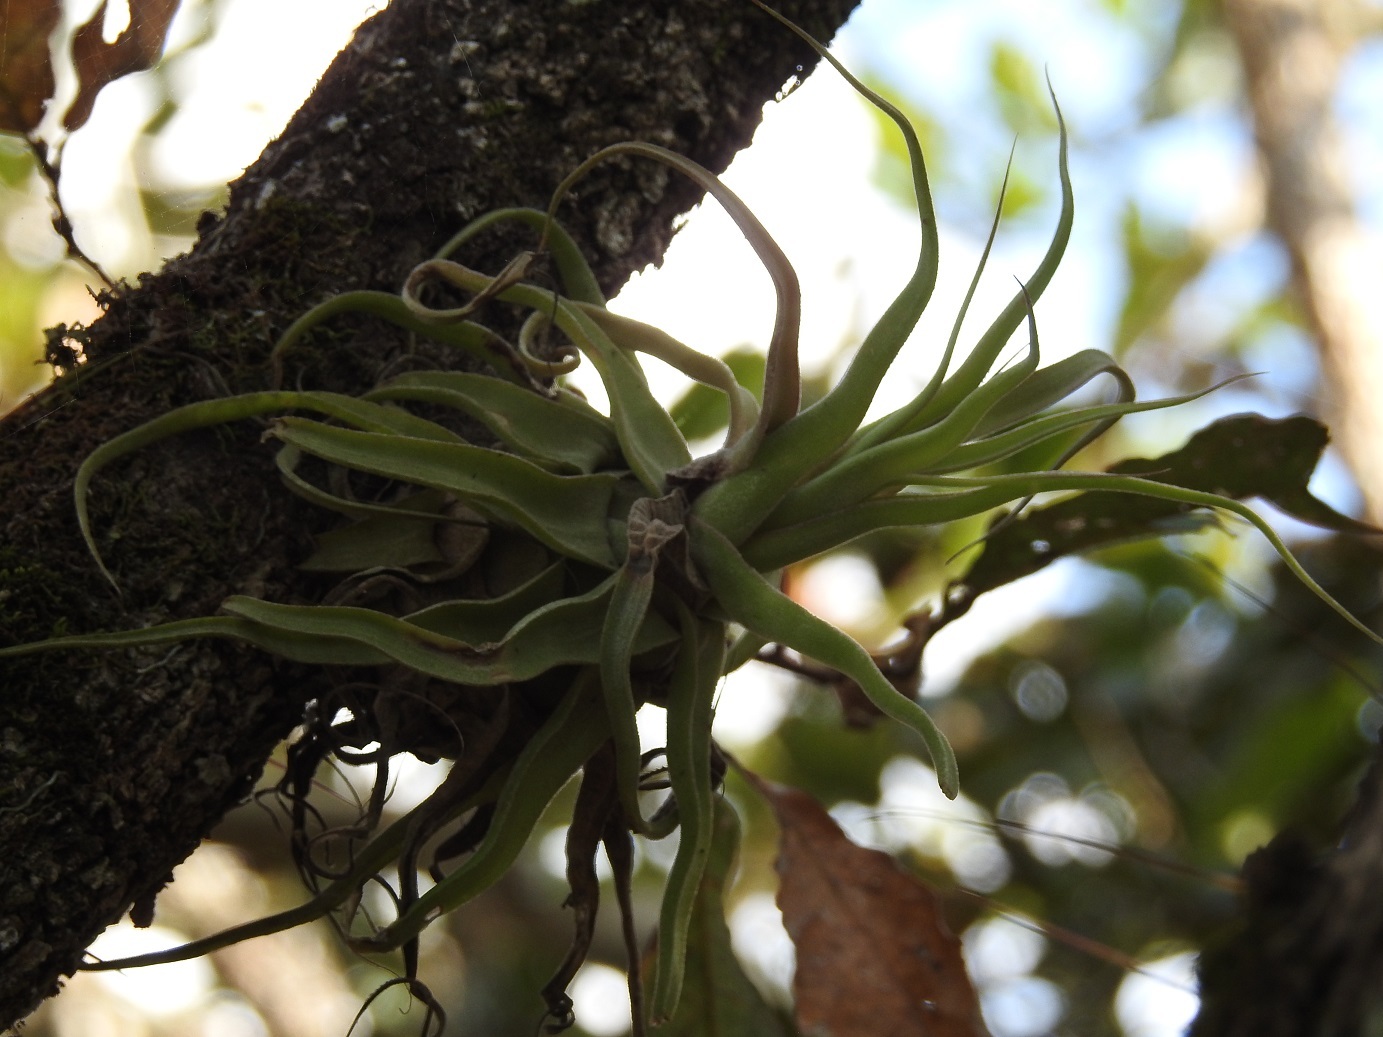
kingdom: Plantae
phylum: Tracheophyta
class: Liliopsida
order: Poales
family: Bromeliaceae
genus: Tillandsia
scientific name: Tillandsia streptophylla
